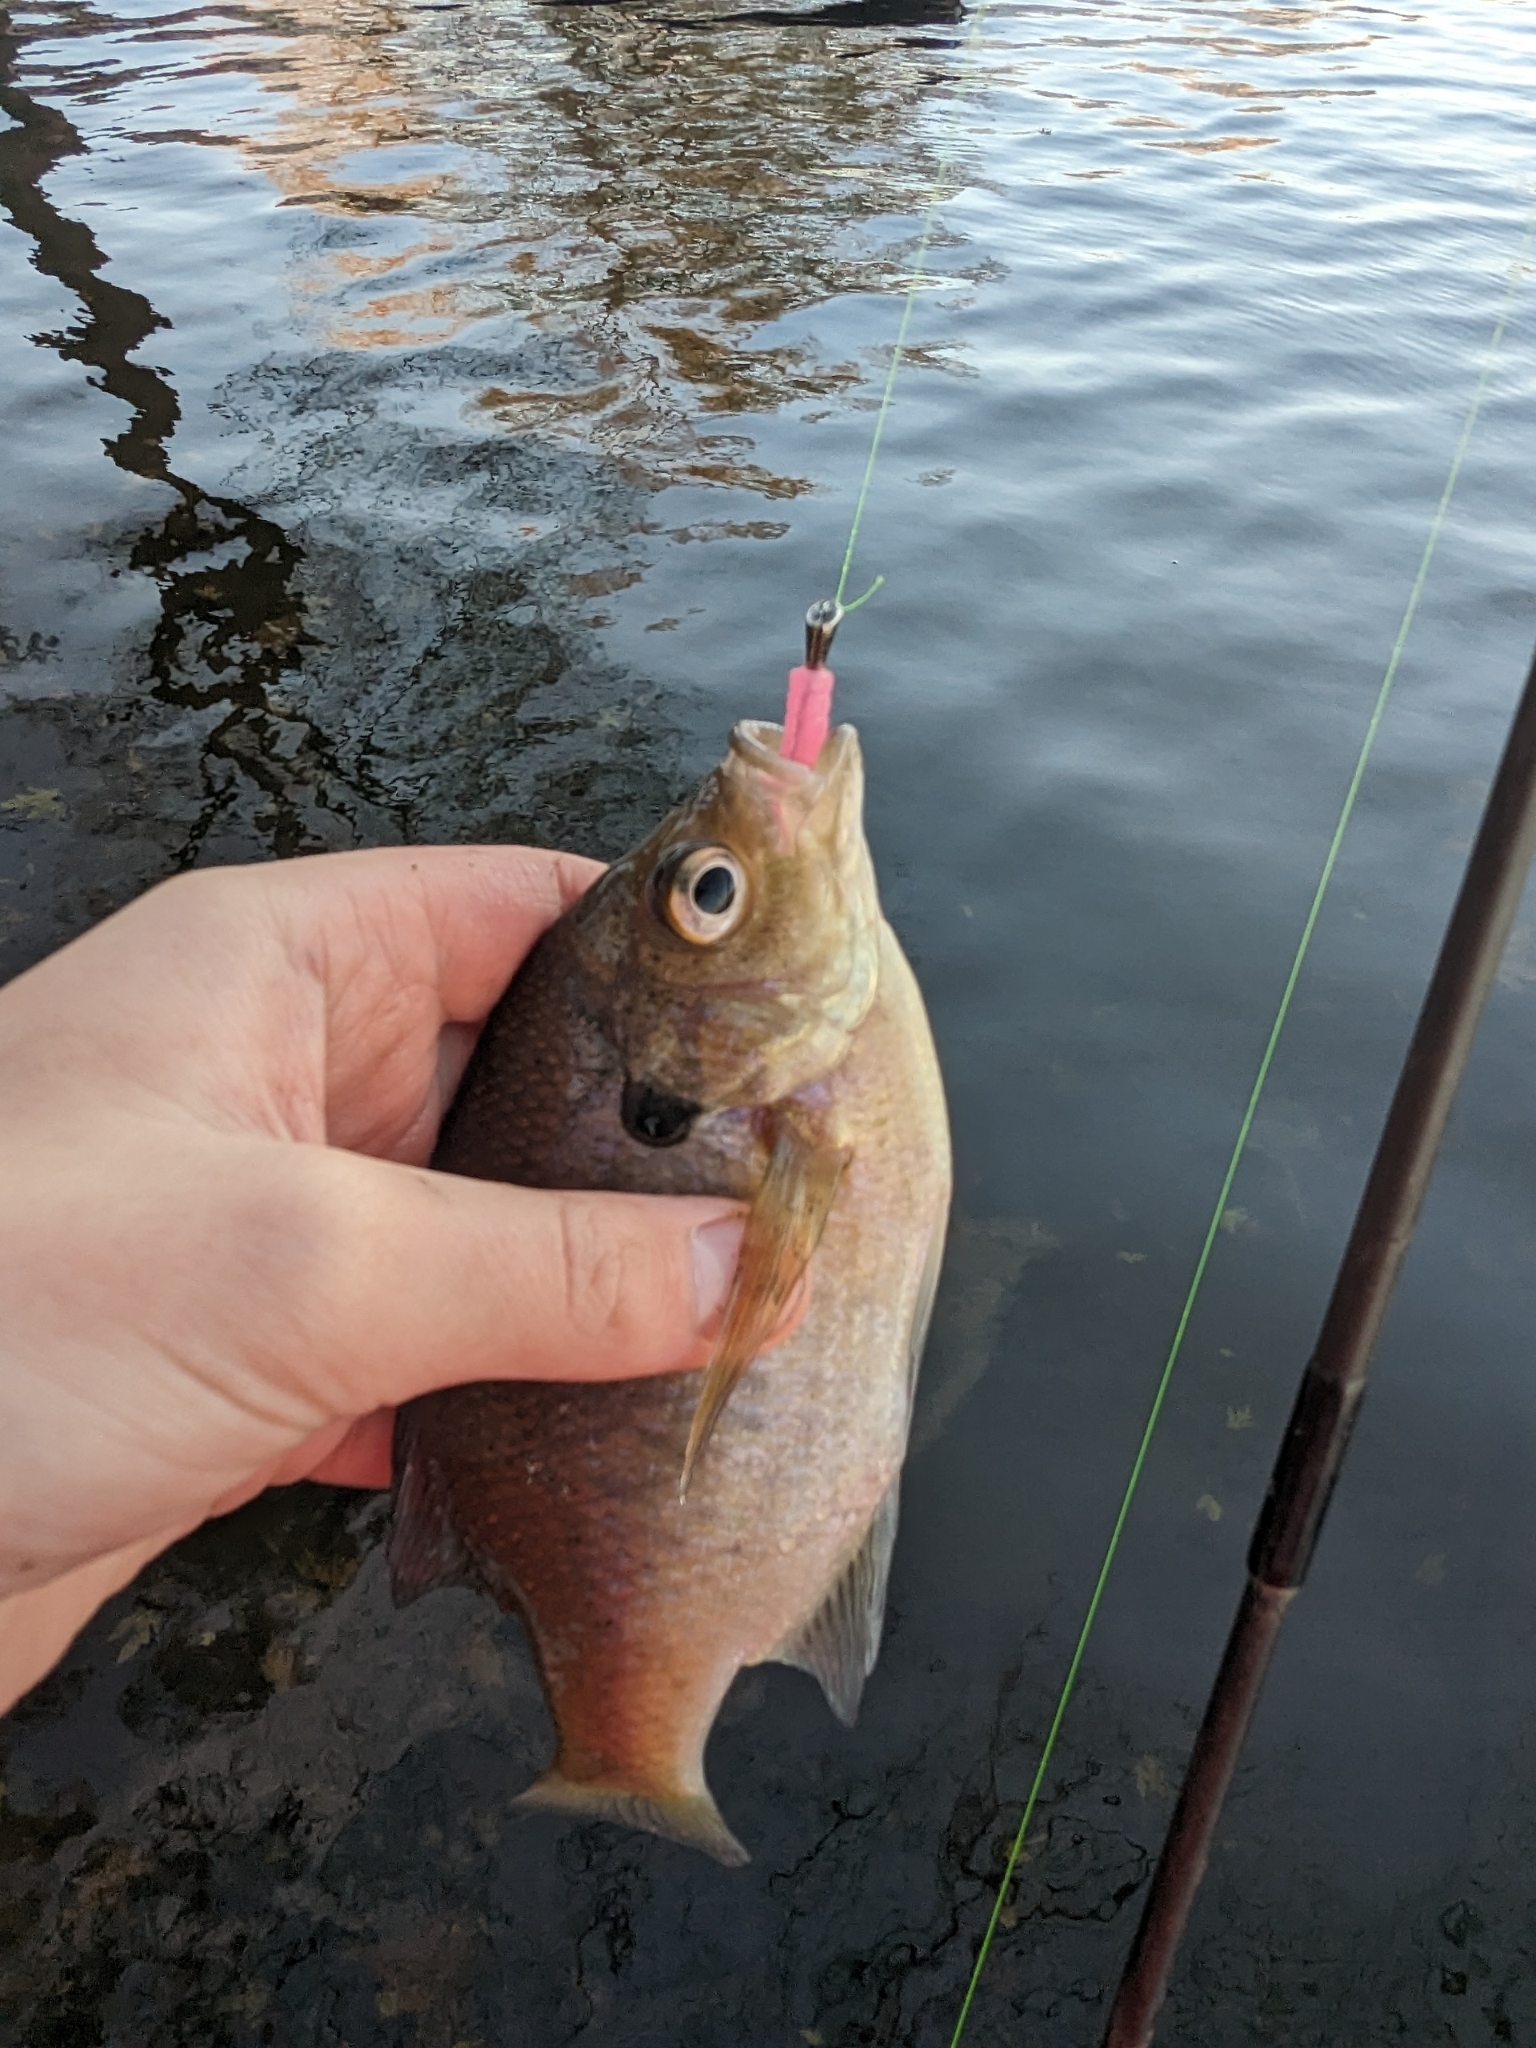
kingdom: Animalia
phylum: Chordata
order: Perciformes
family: Centrarchidae
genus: Lepomis
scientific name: Lepomis macrochirus
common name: Bluegill
